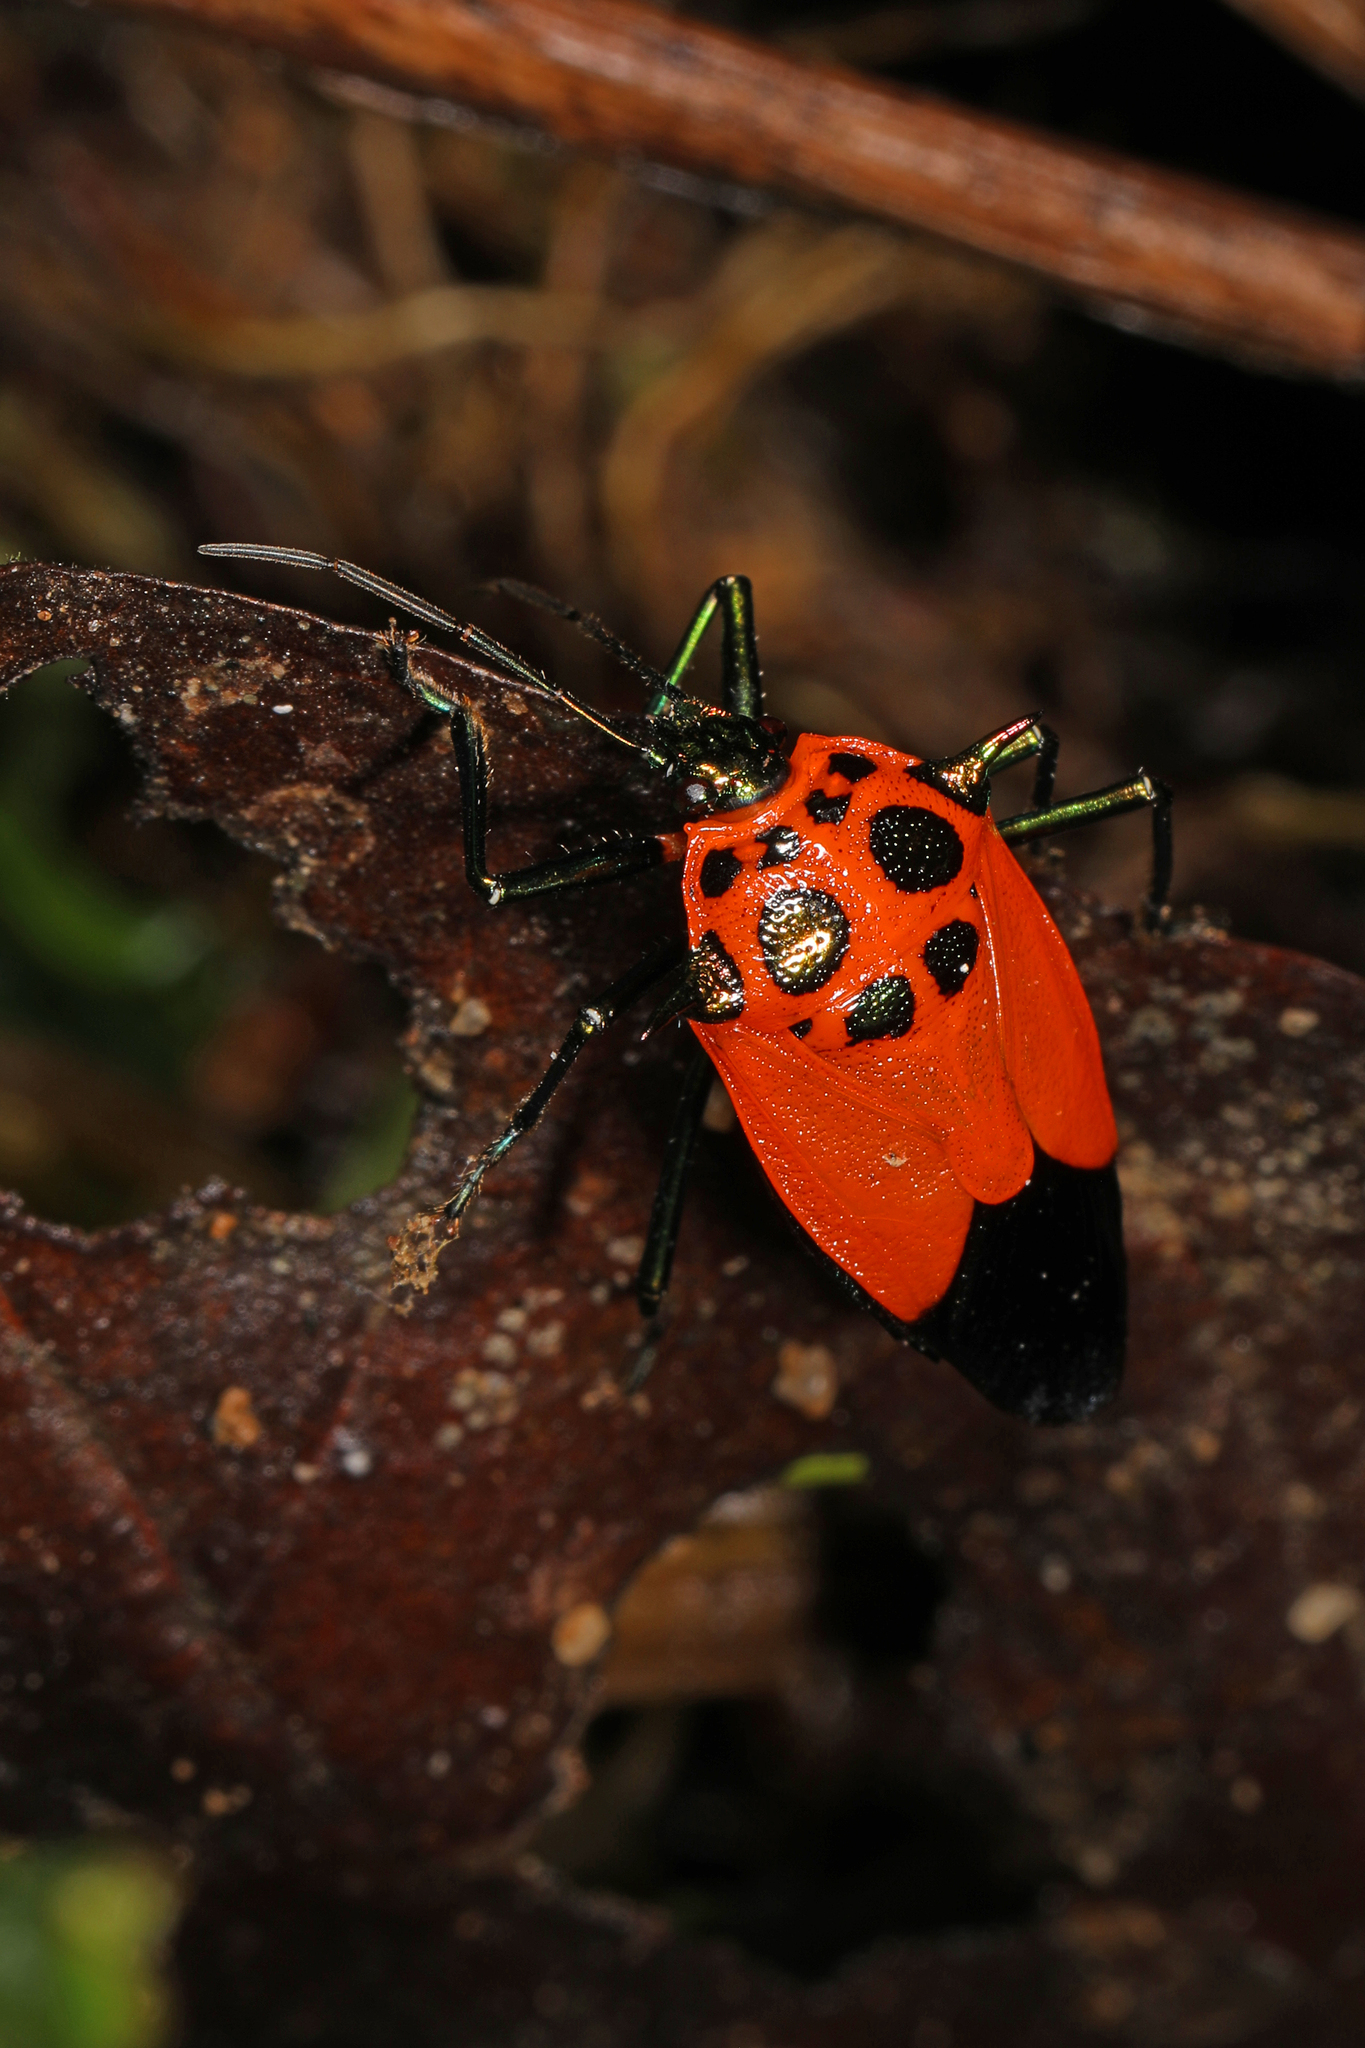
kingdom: Animalia
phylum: Arthropoda
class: Insecta
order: Hemiptera
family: Pentatomidae
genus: Coryzorhaphis
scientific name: Coryzorhaphis
